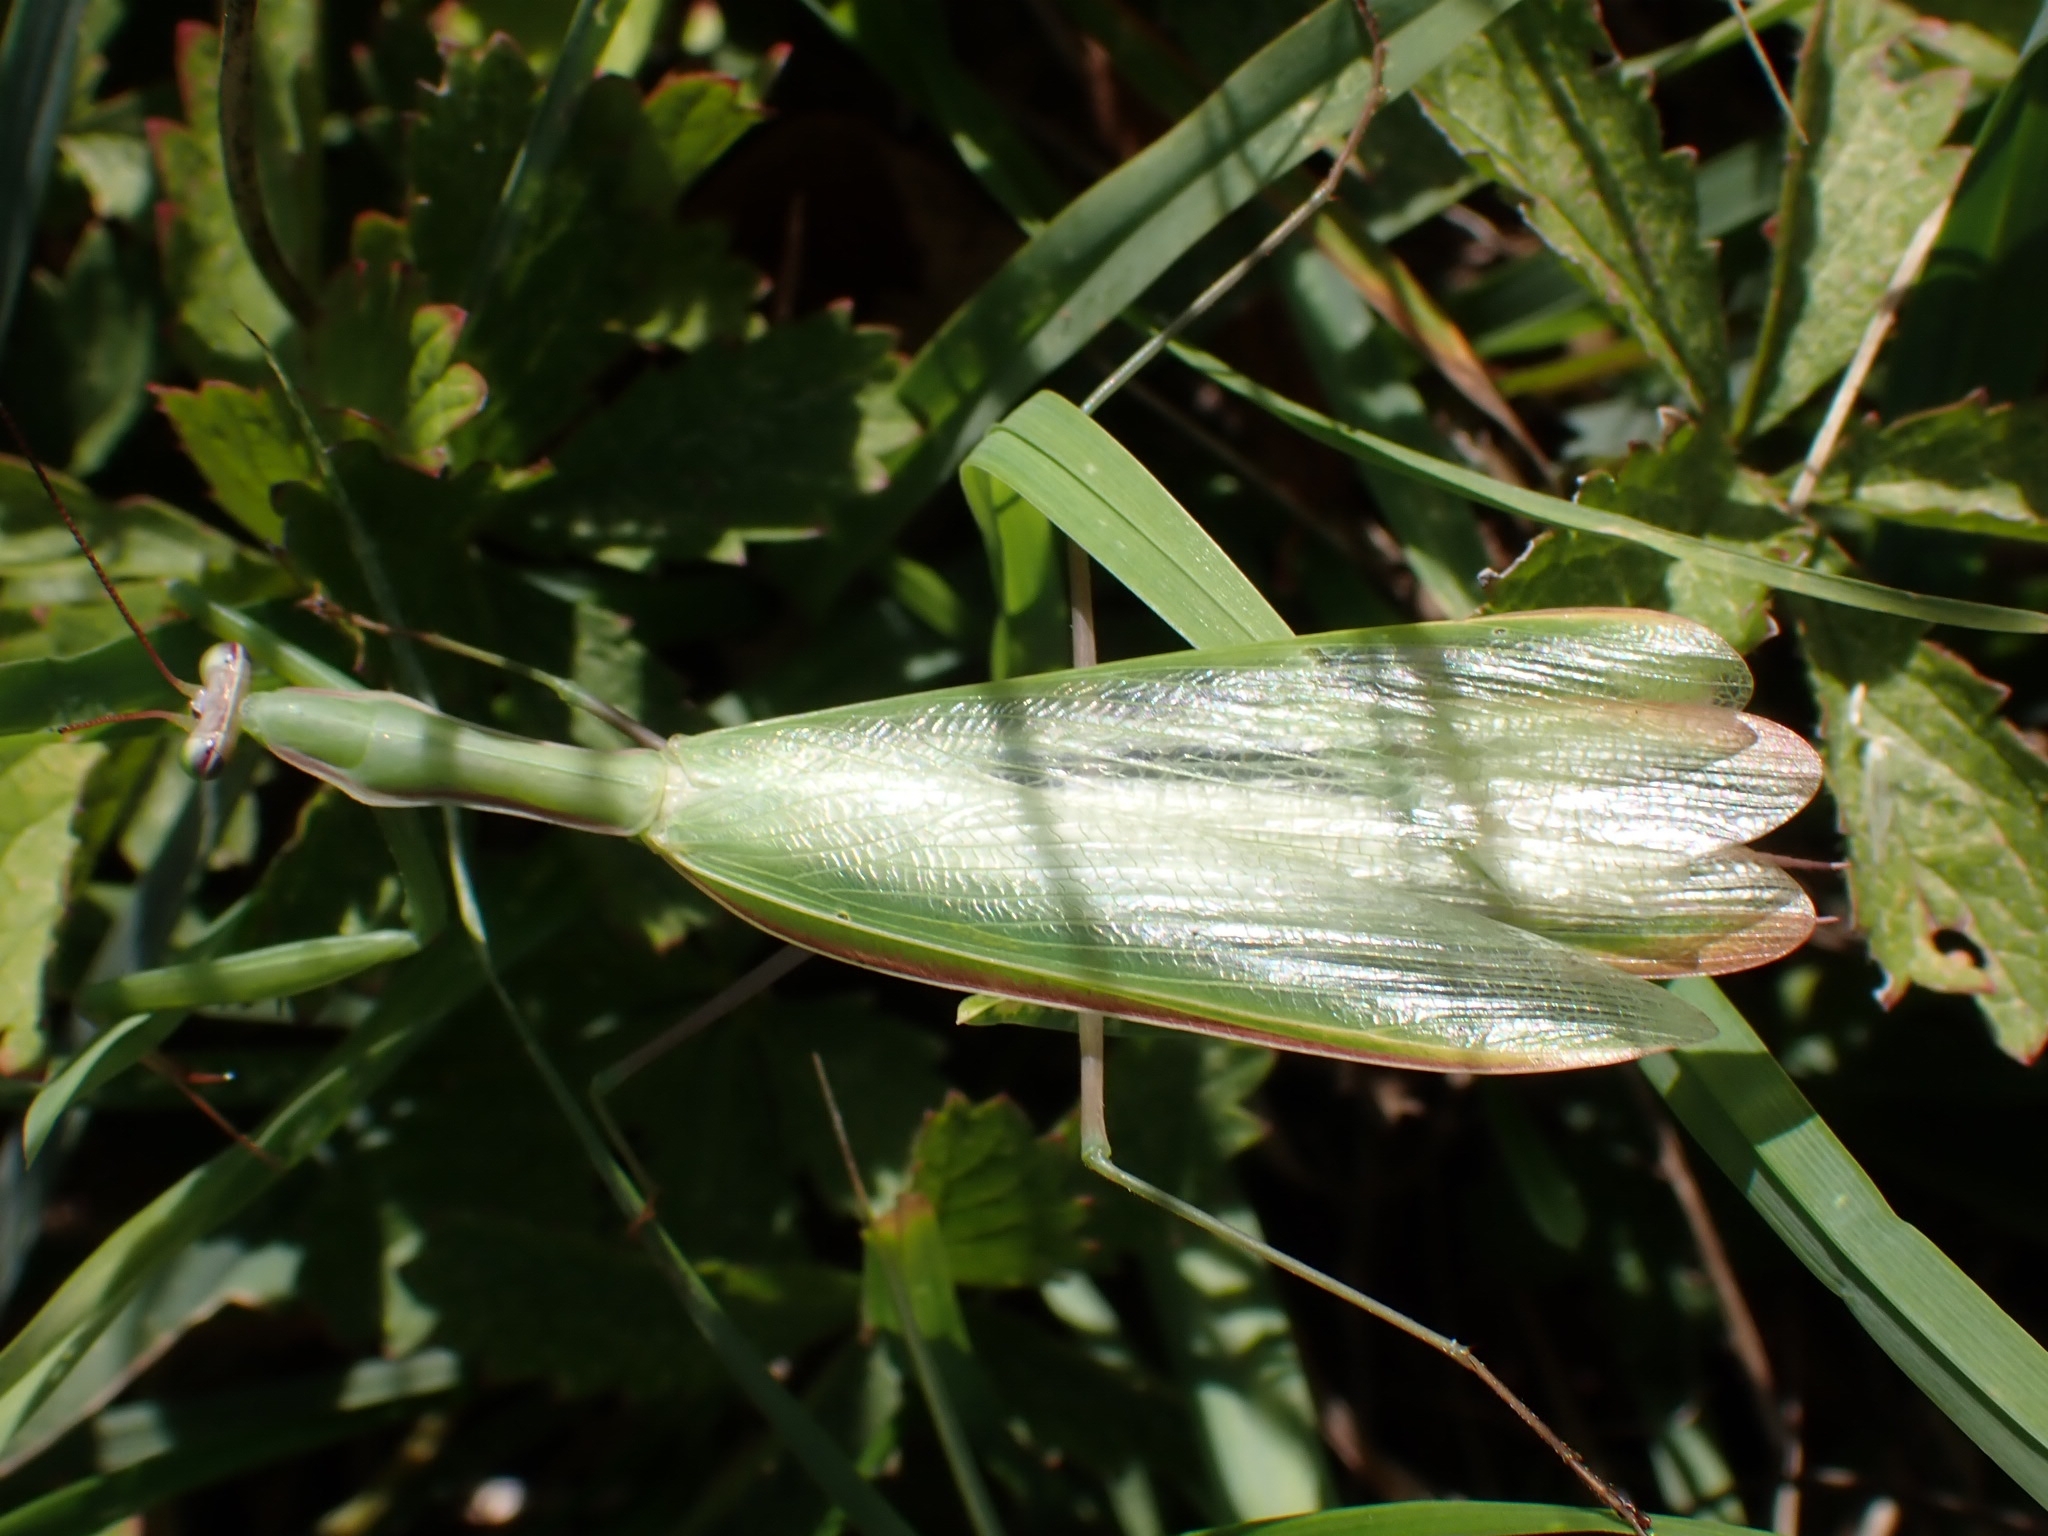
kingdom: Animalia
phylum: Arthropoda
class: Insecta
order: Mantodea
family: Mantidae
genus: Mantis
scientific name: Mantis religiosa
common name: Praying mantis
